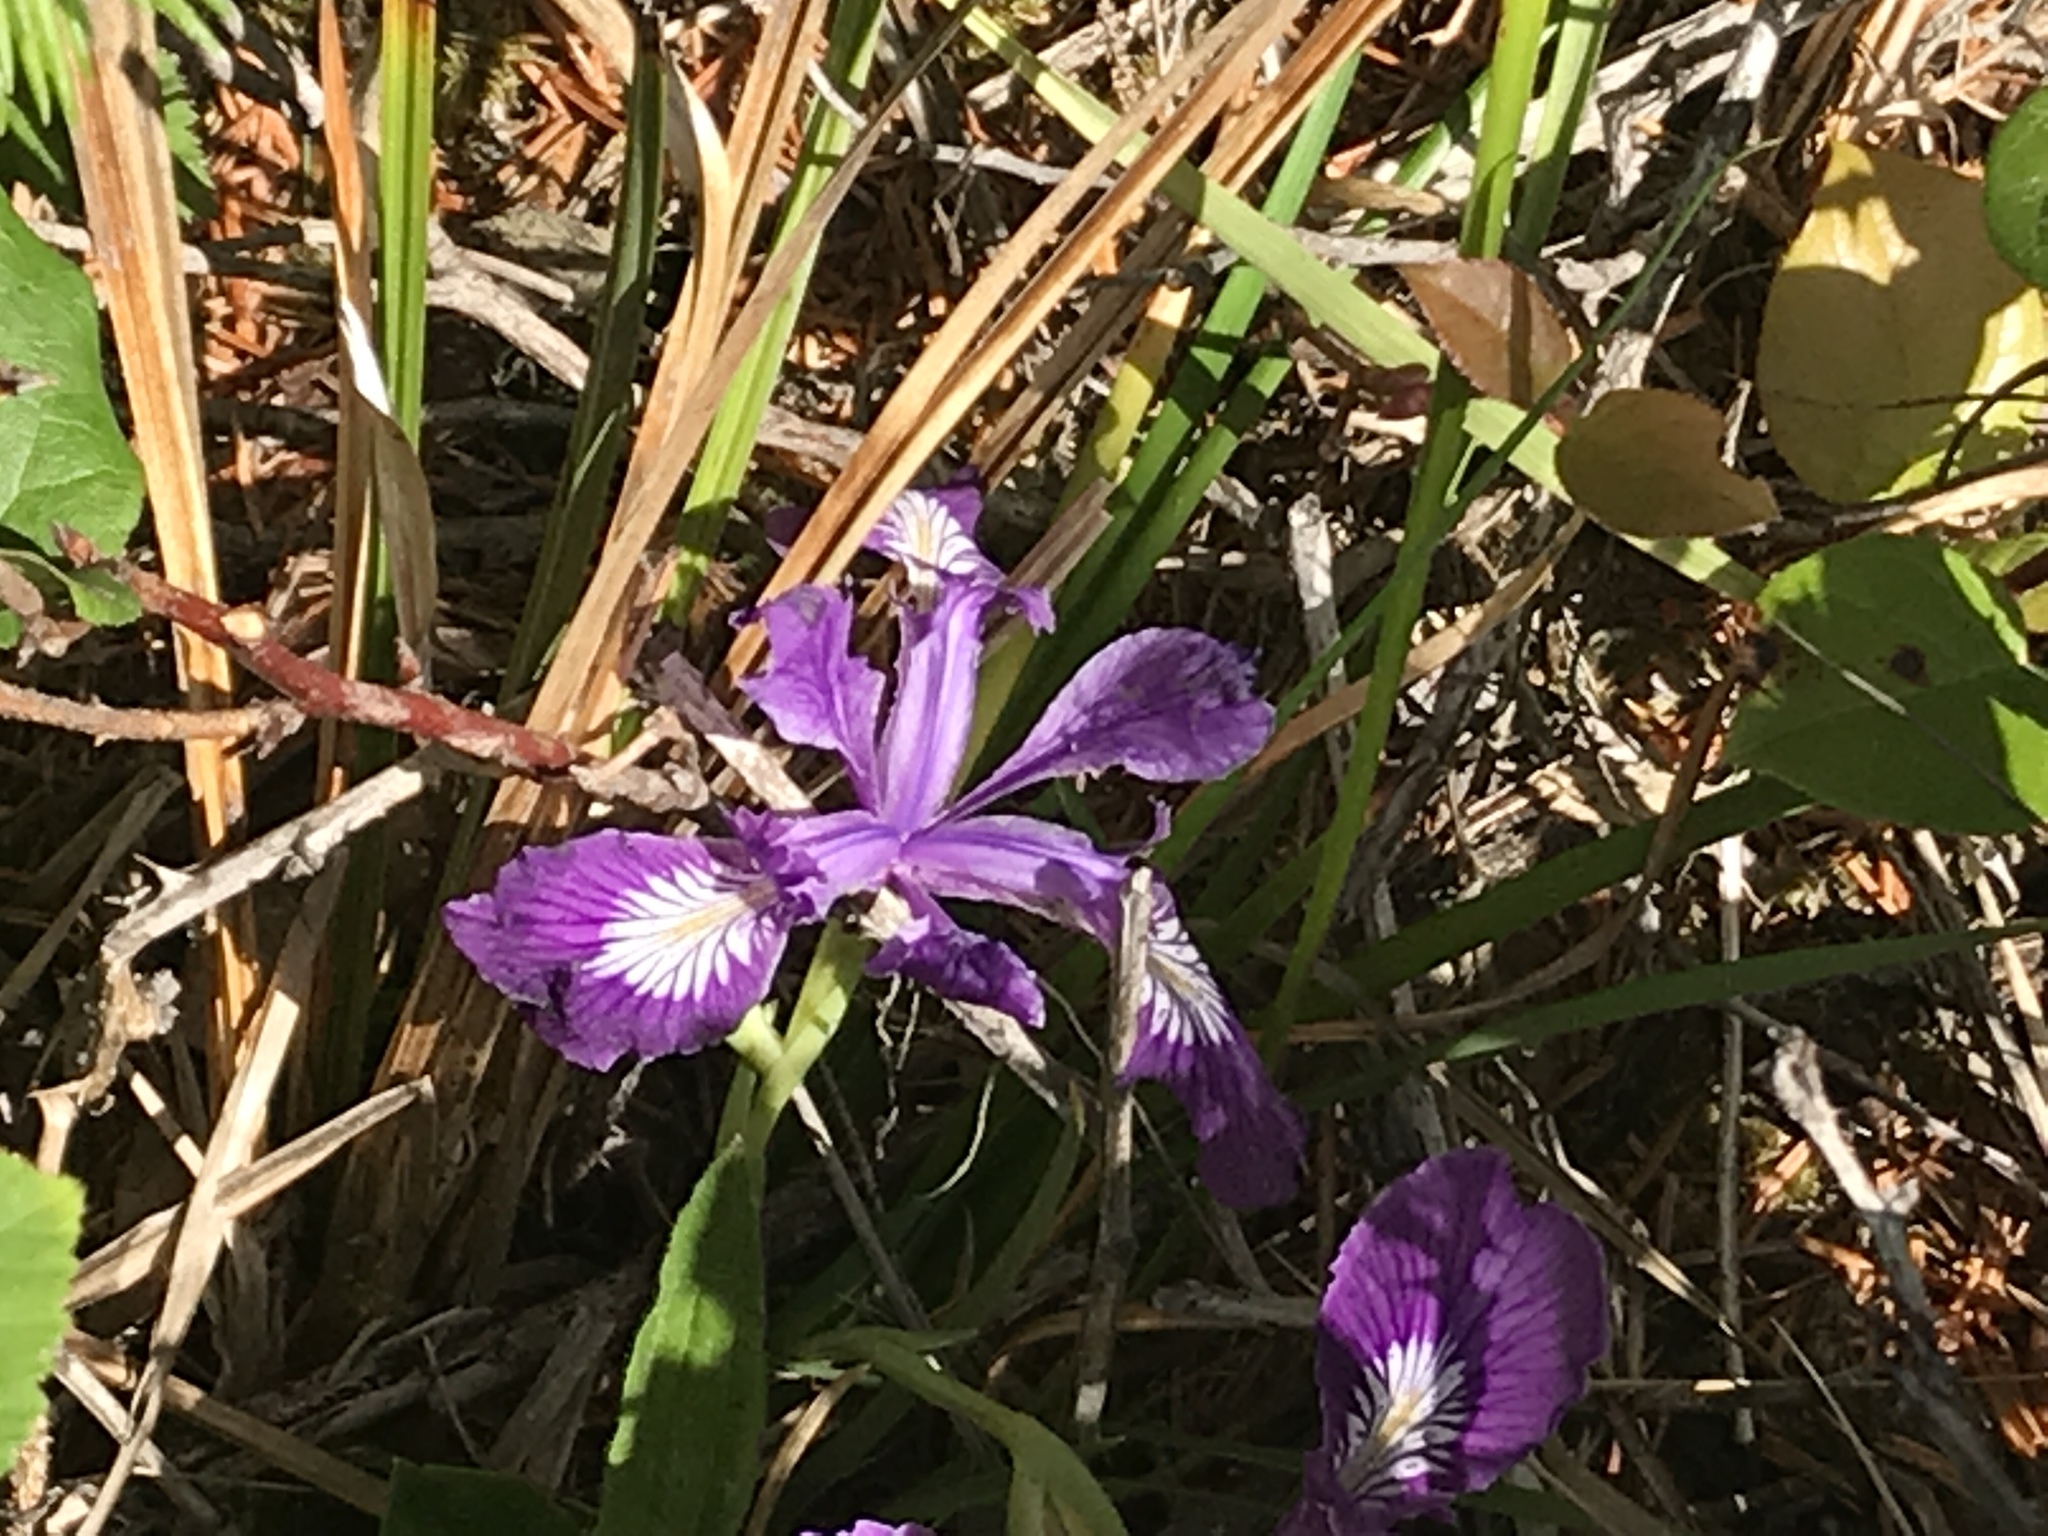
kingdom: Plantae
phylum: Tracheophyta
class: Liliopsida
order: Asparagales
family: Iridaceae
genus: Iris
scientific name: Iris tenax
